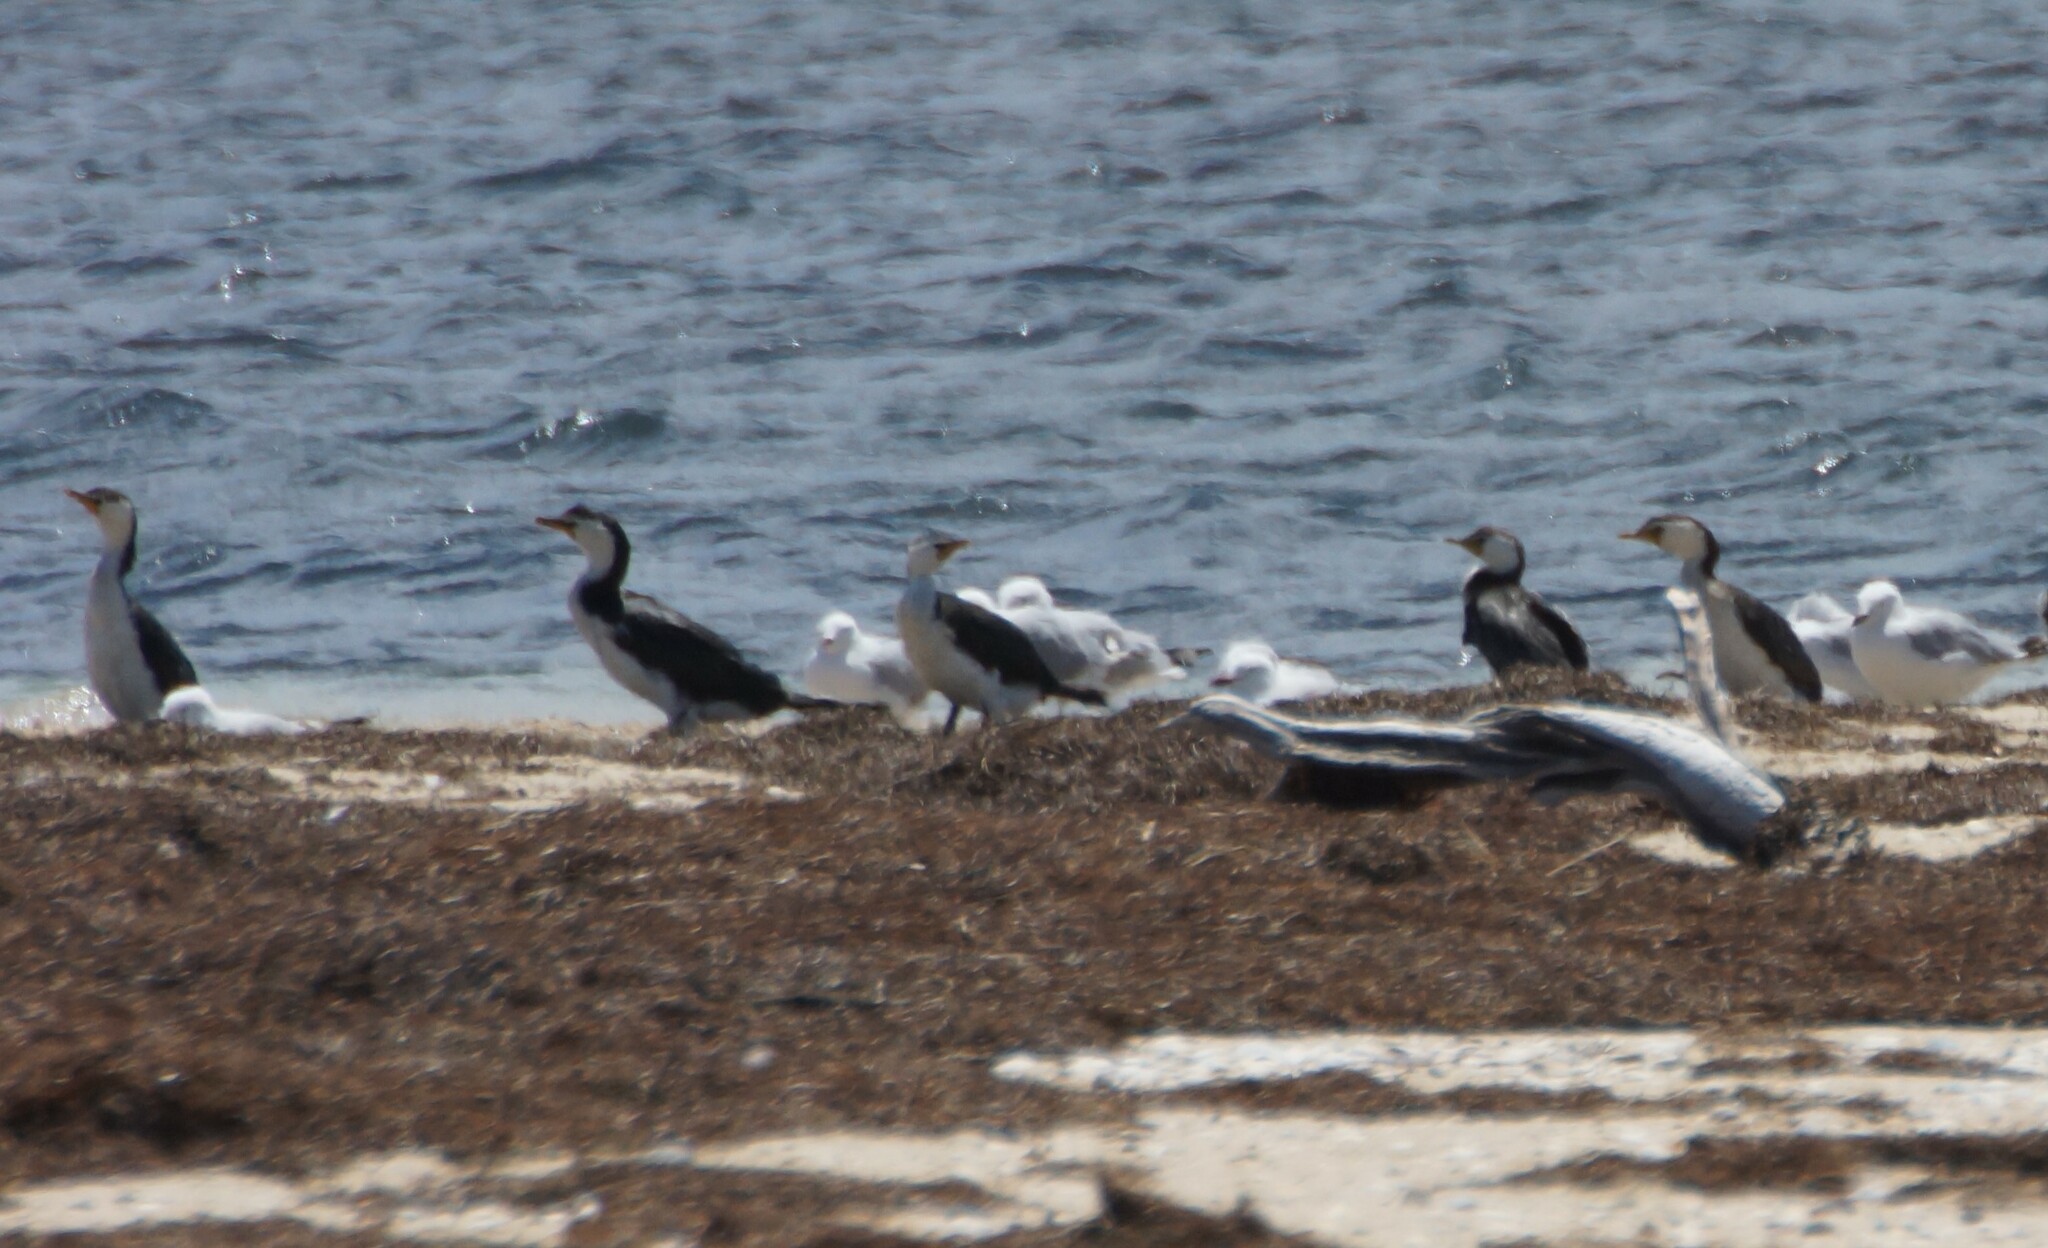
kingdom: Animalia
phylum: Chordata
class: Aves
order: Suliformes
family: Phalacrocoracidae
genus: Microcarbo
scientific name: Microcarbo melanoleucos
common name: Little pied cormorant
